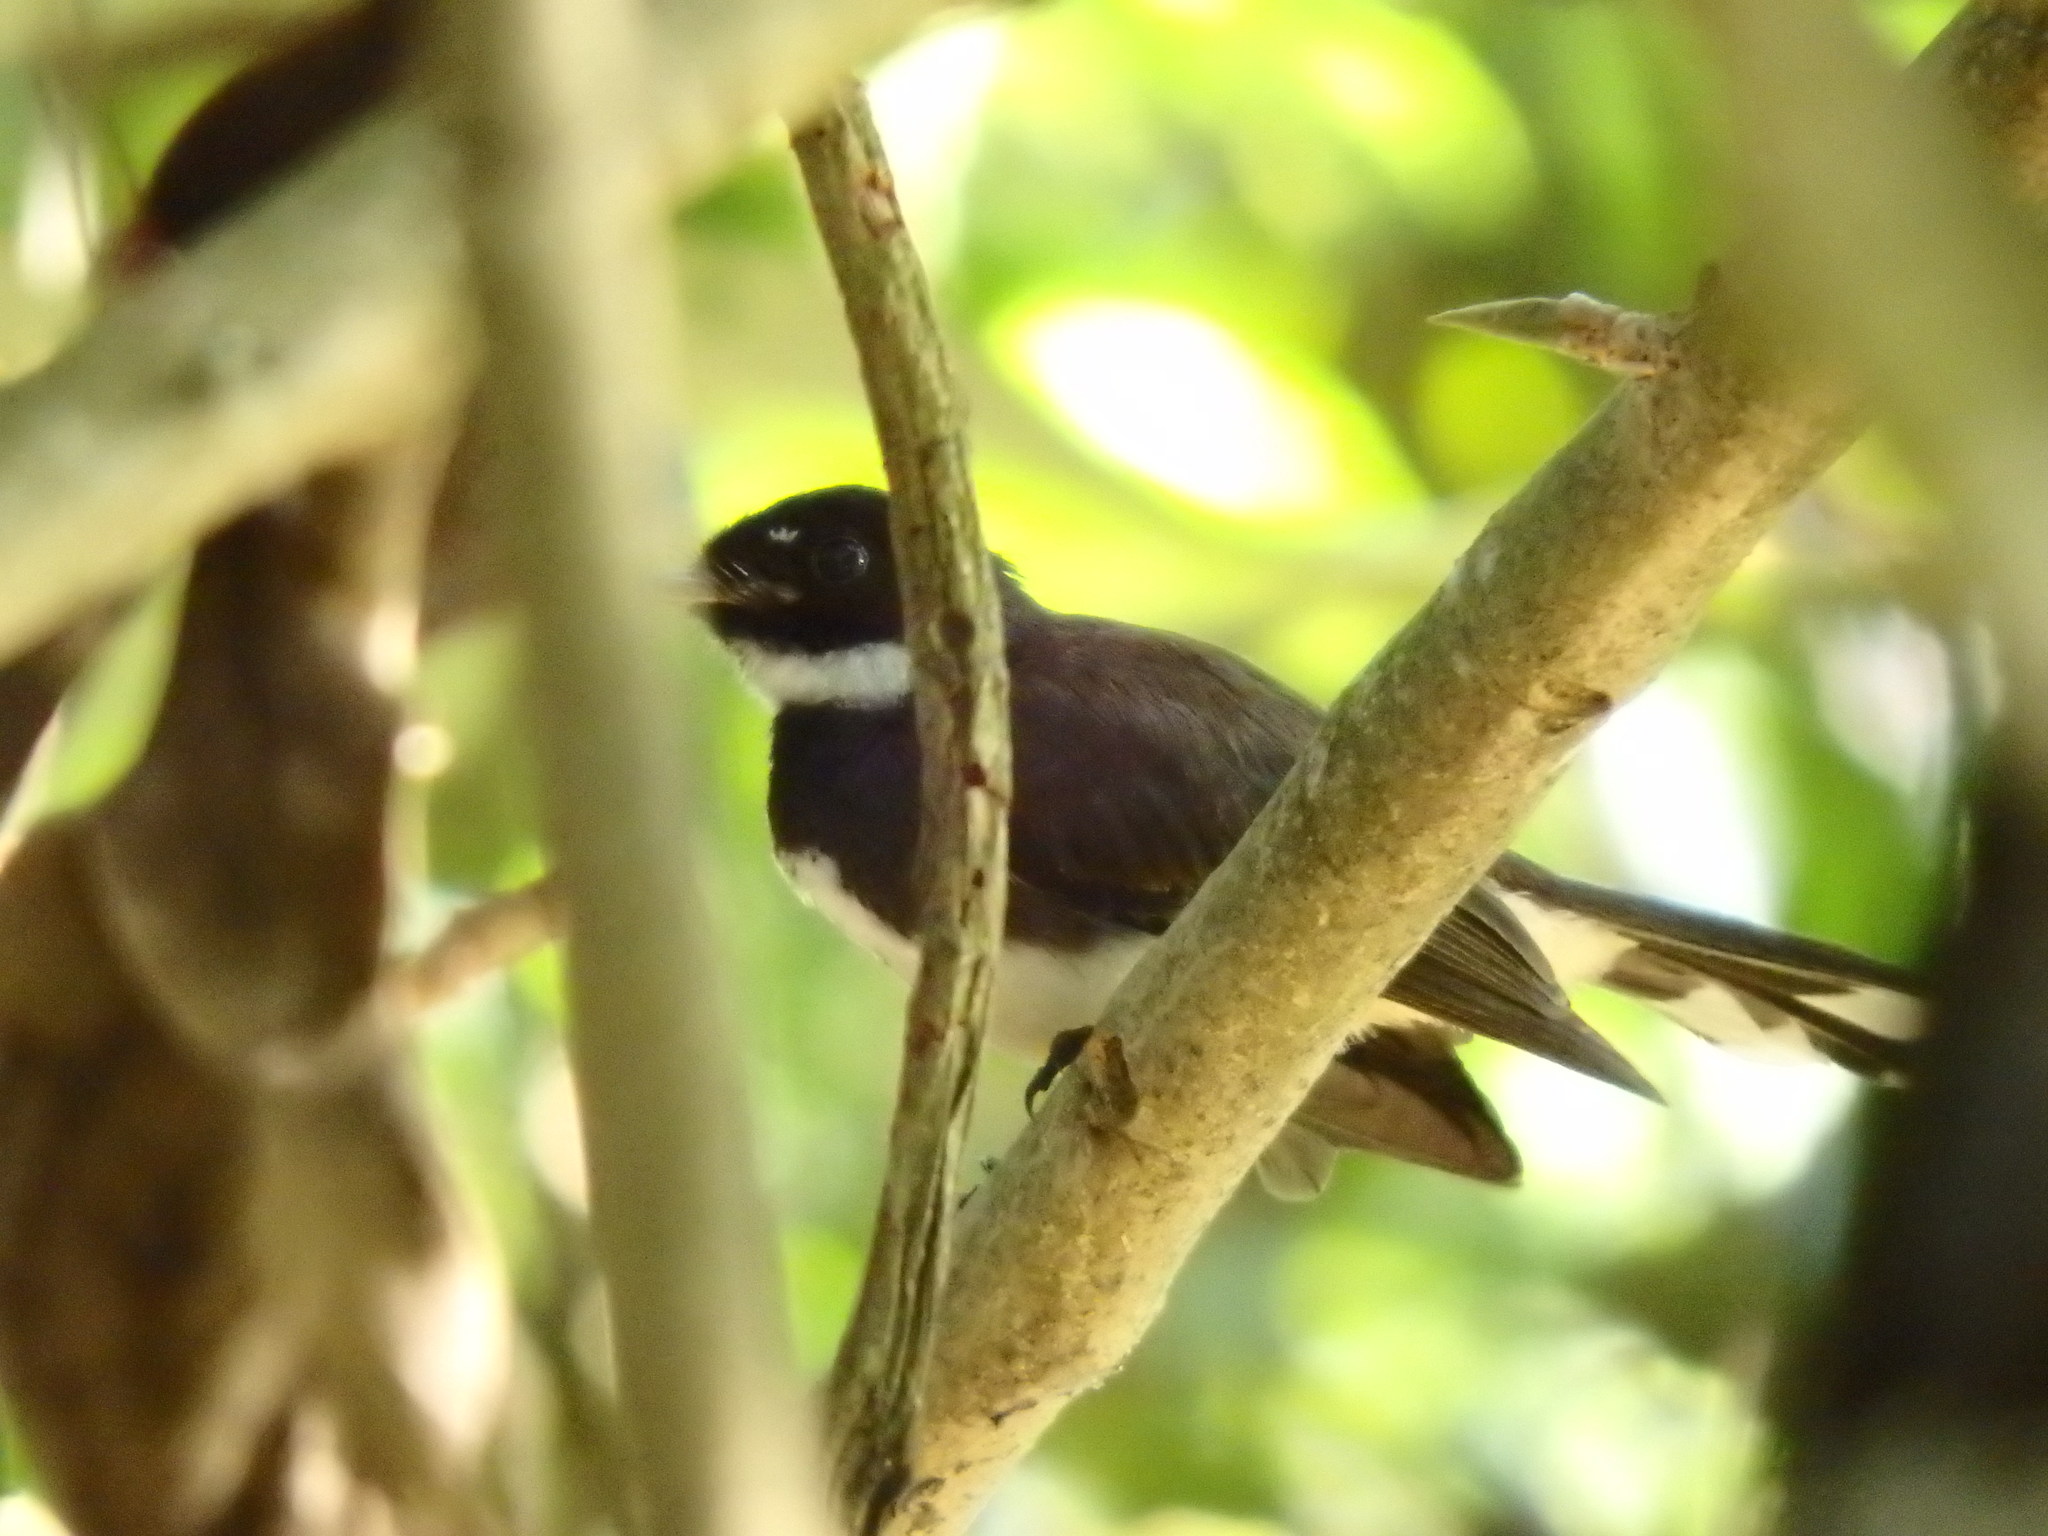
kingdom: Animalia
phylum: Chordata
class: Aves
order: Passeriformes
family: Rhipiduridae
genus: Rhipidura
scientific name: Rhipidura javanica
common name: Pied fantail
